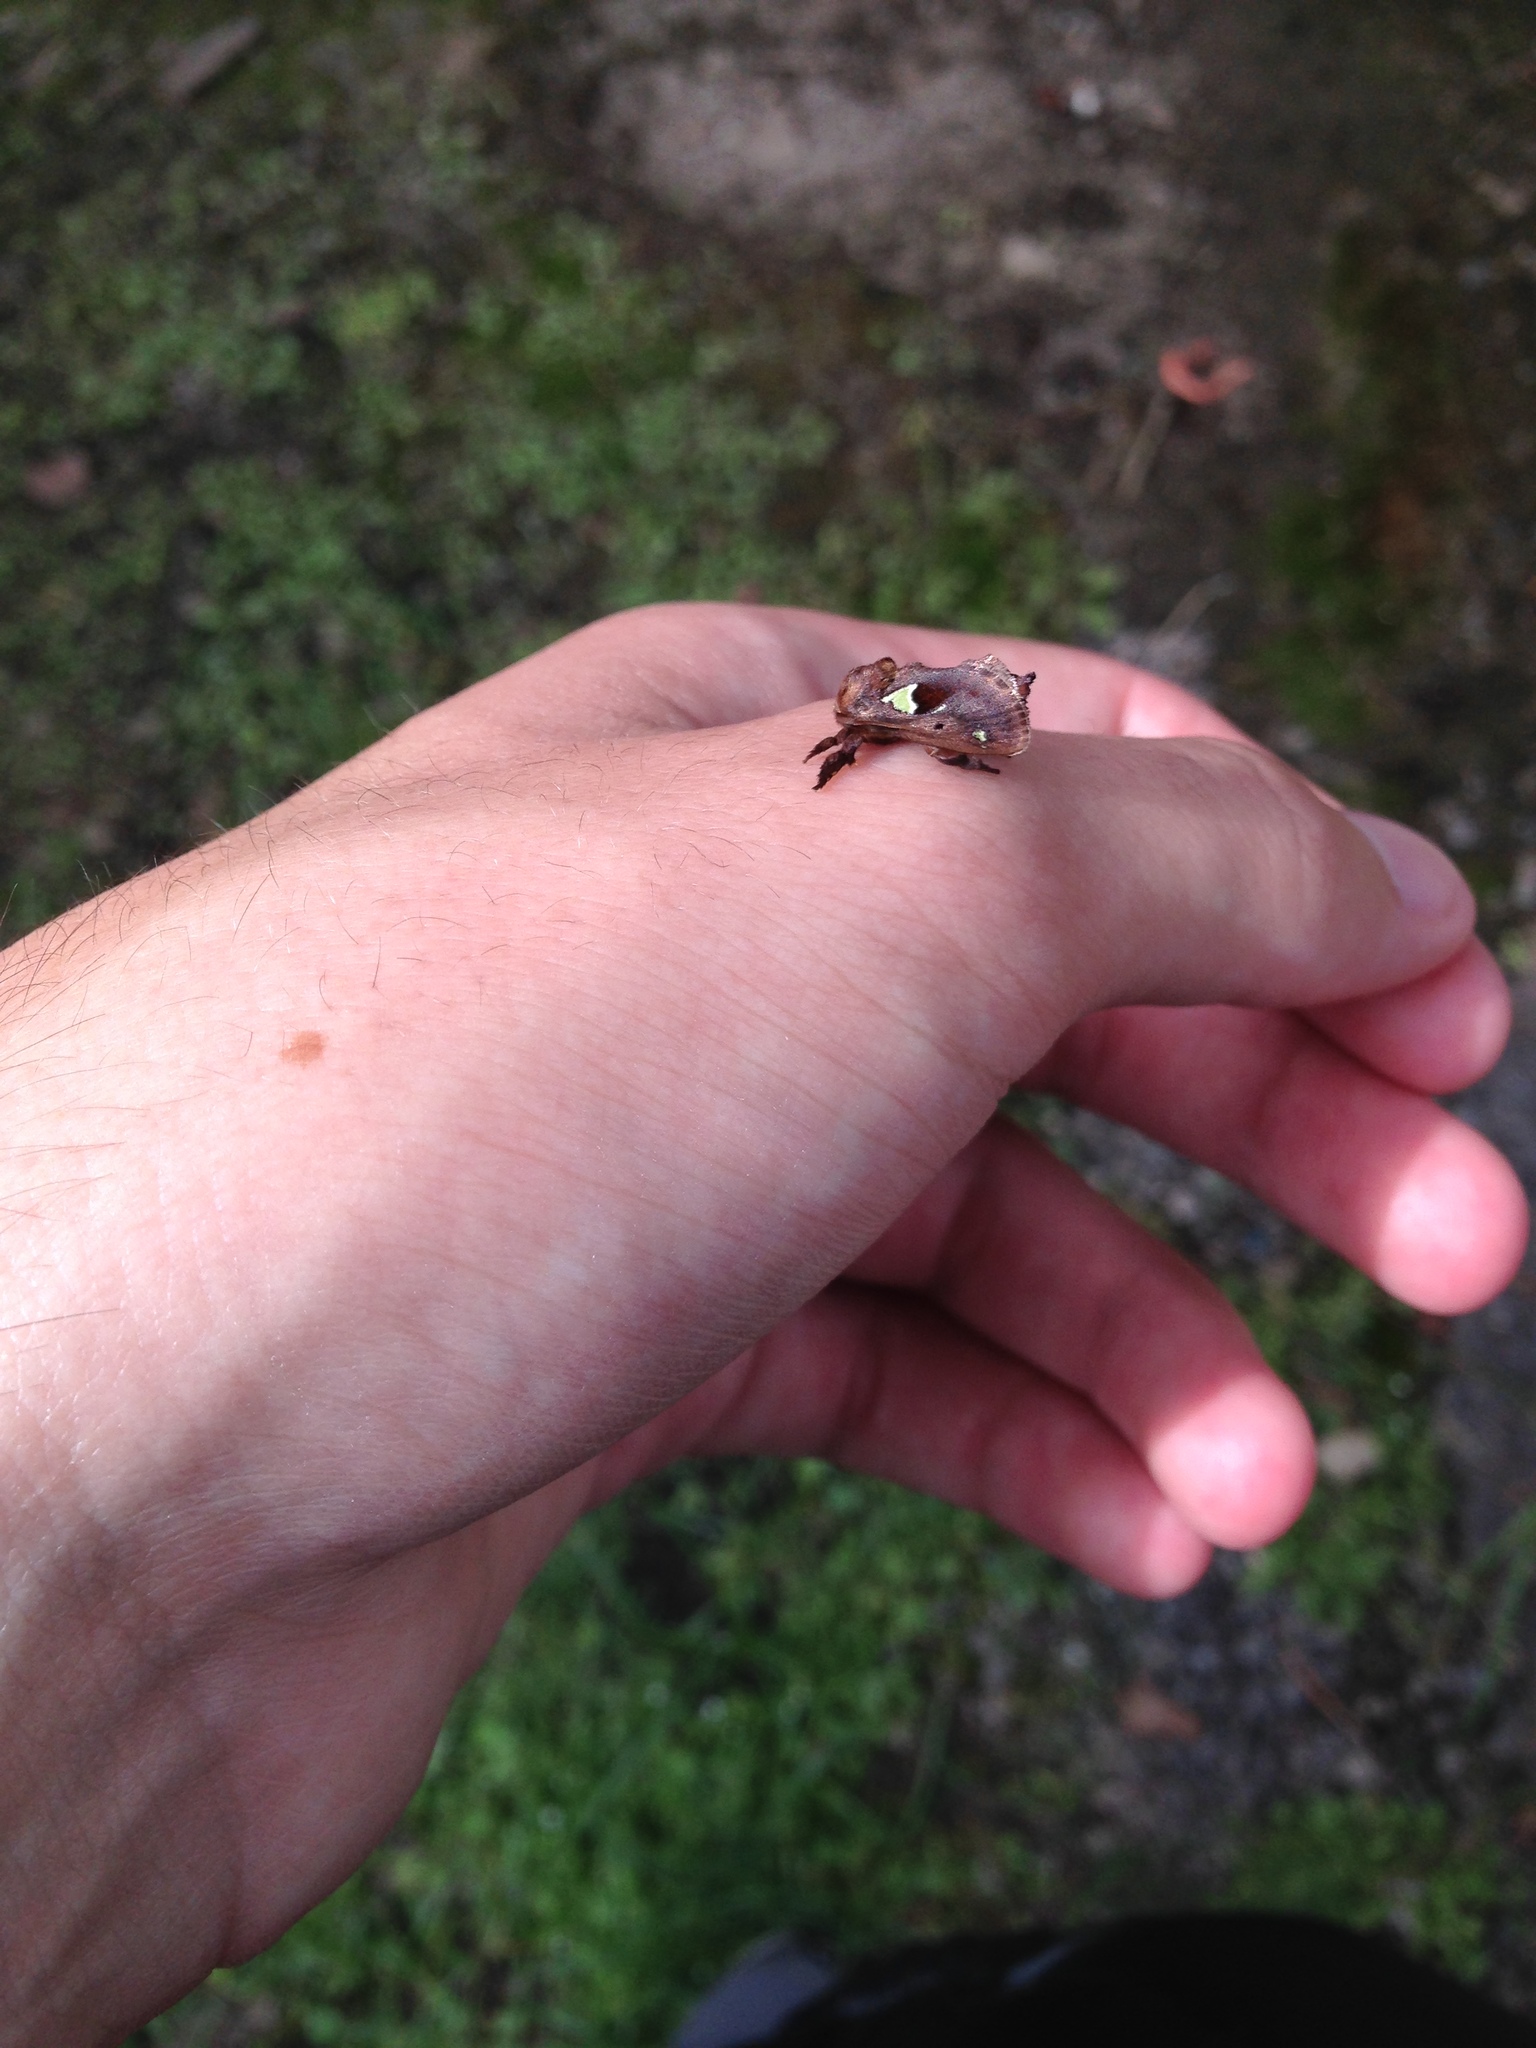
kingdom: Animalia
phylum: Arthropoda
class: Insecta
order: Lepidoptera
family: Limacodidae
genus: Euclea
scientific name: Euclea delphinii
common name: Spiny oak-slug moth
